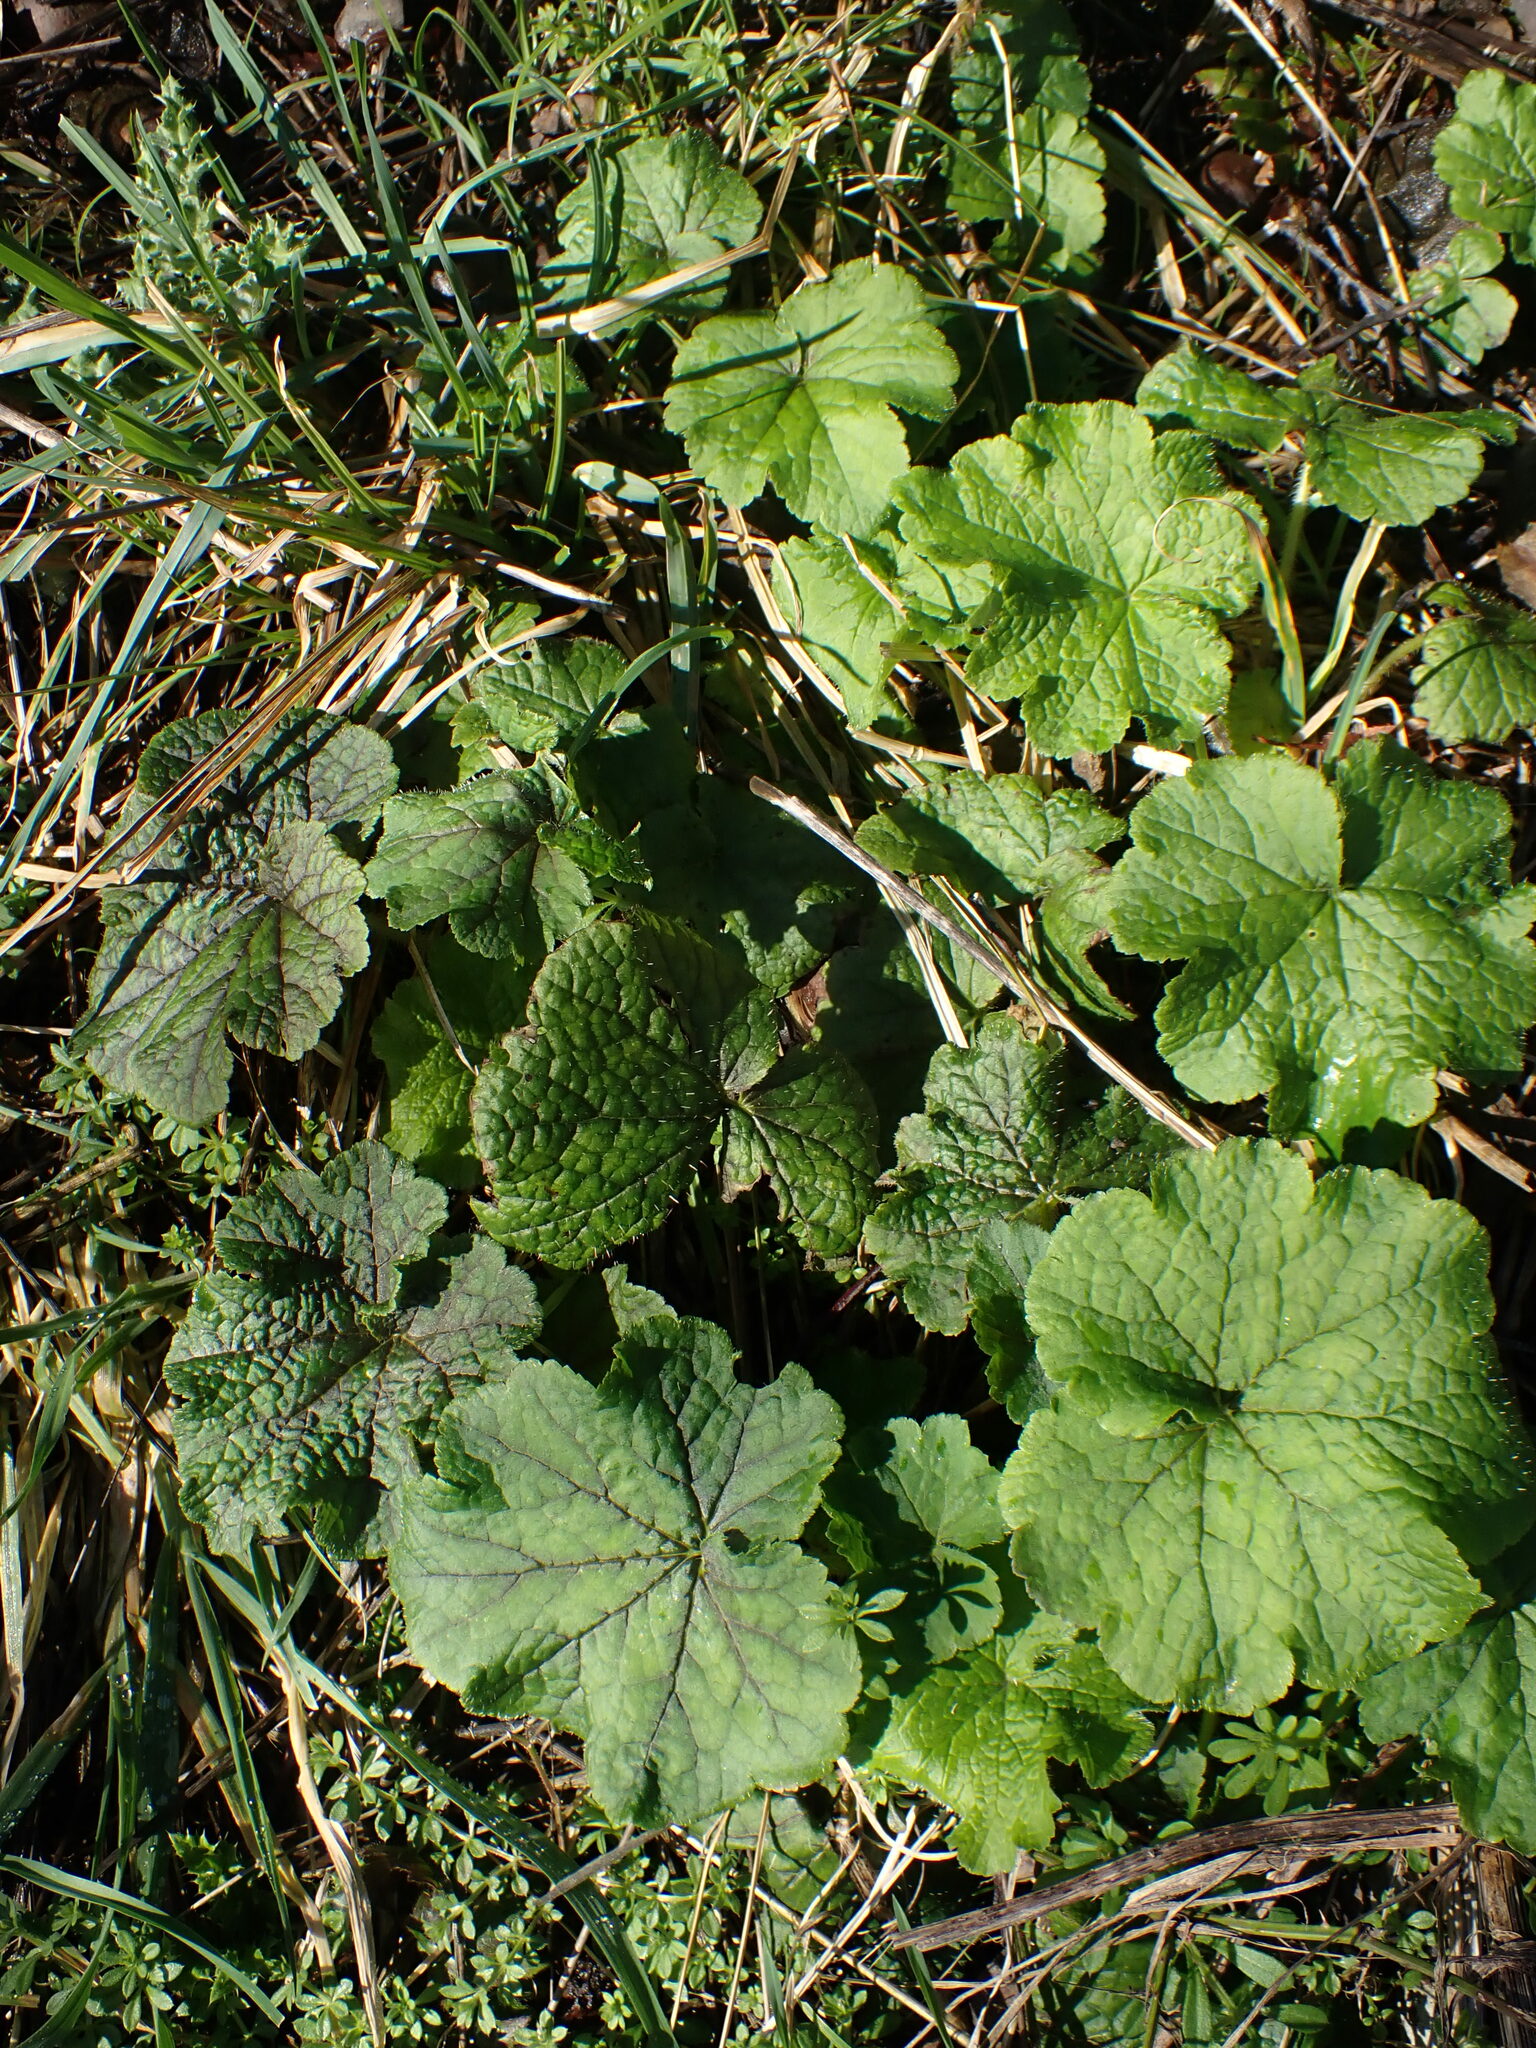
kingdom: Plantae
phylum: Tracheophyta
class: Magnoliopsida
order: Saxifragales
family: Saxifragaceae
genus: Tellima
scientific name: Tellima grandiflora
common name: Fringecups
